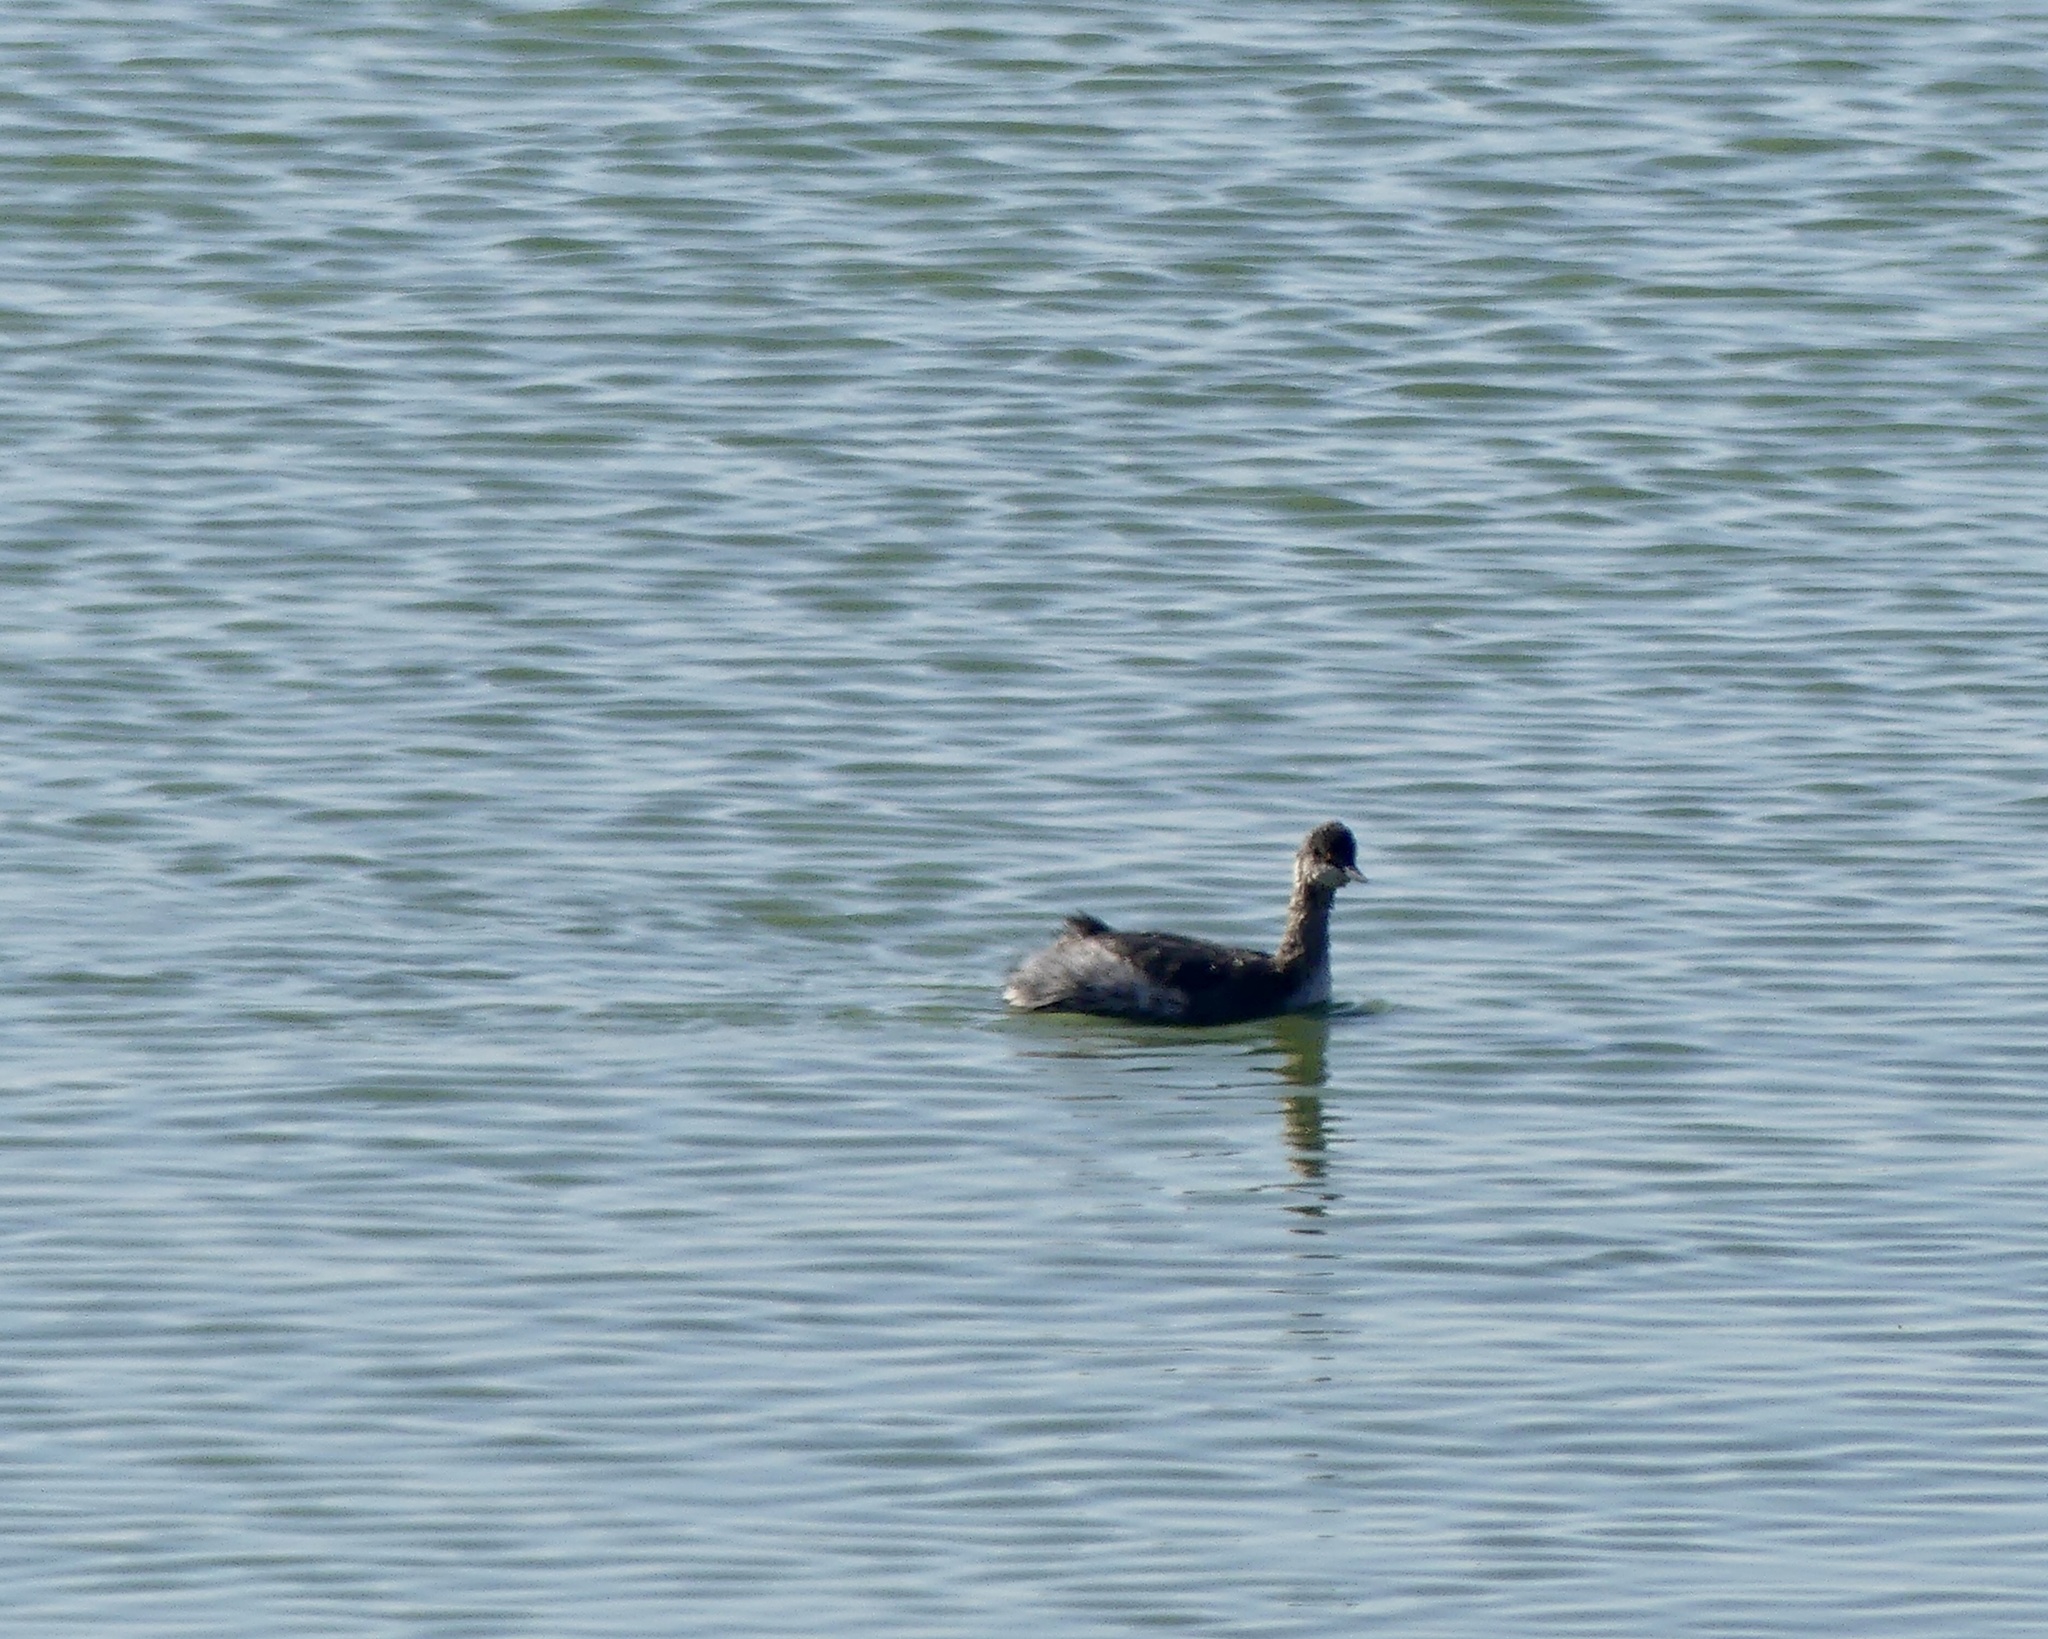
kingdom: Animalia
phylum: Chordata
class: Aves
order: Podicipediformes
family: Podicipedidae
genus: Podiceps
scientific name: Podiceps nigricollis
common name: Black-necked grebe
